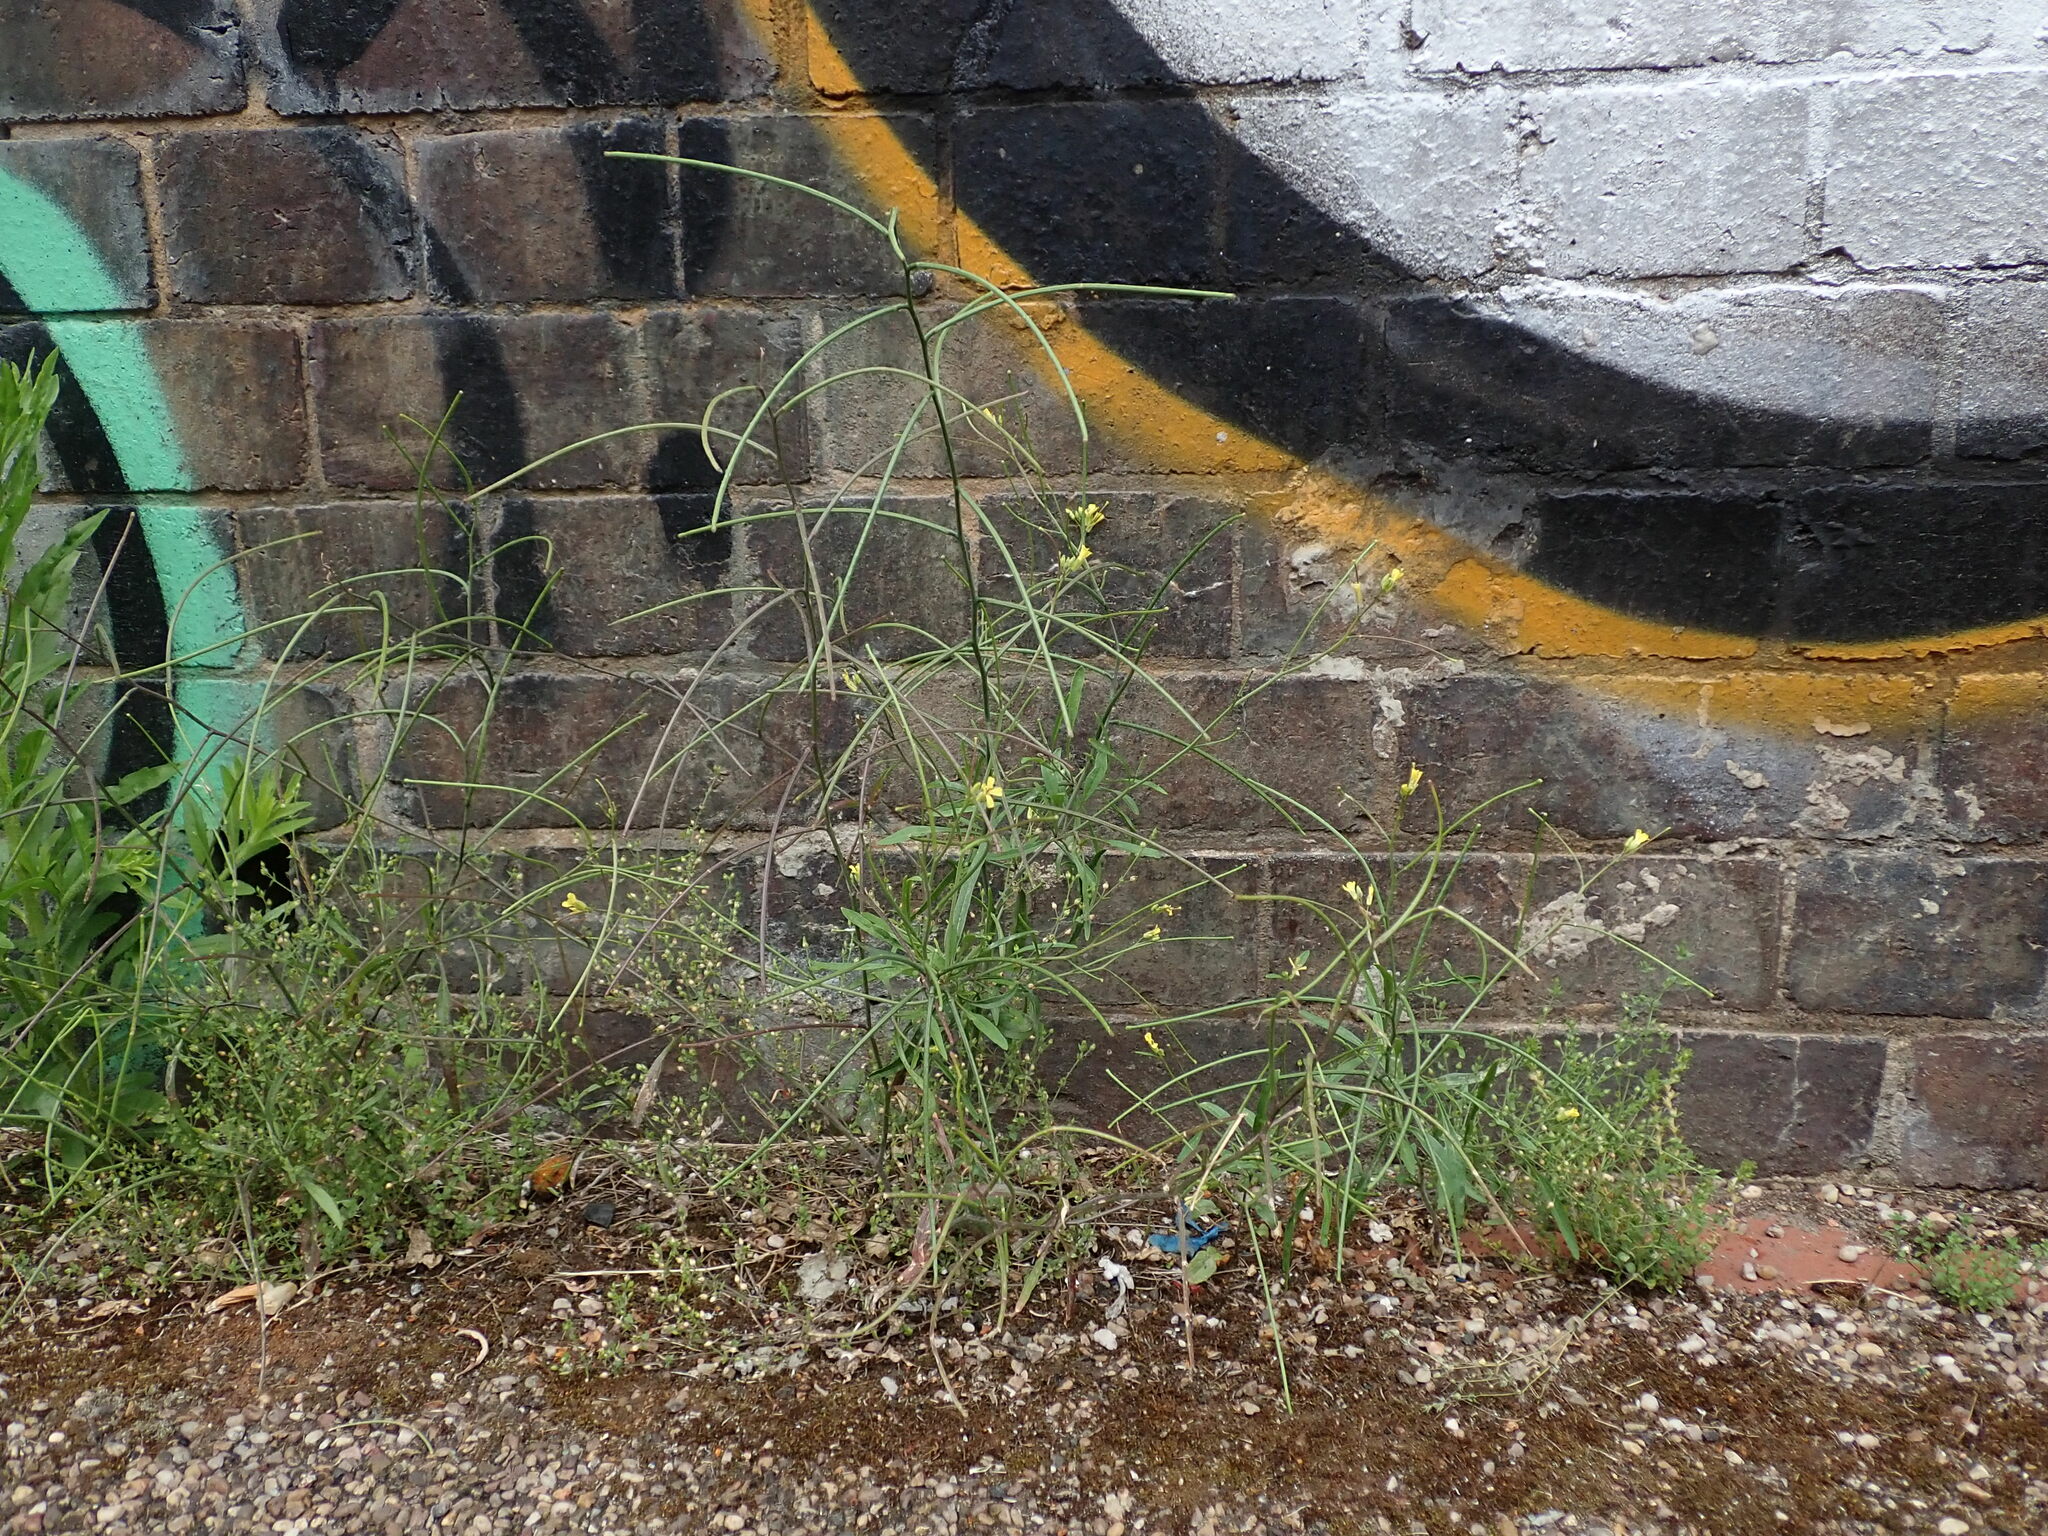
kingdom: Plantae
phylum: Tracheophyta
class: Magnoliopsida
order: Brassicales
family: Brassicaceae
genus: Sisymbrium
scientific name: Sisymbrium orientale
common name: Eastern rocket
